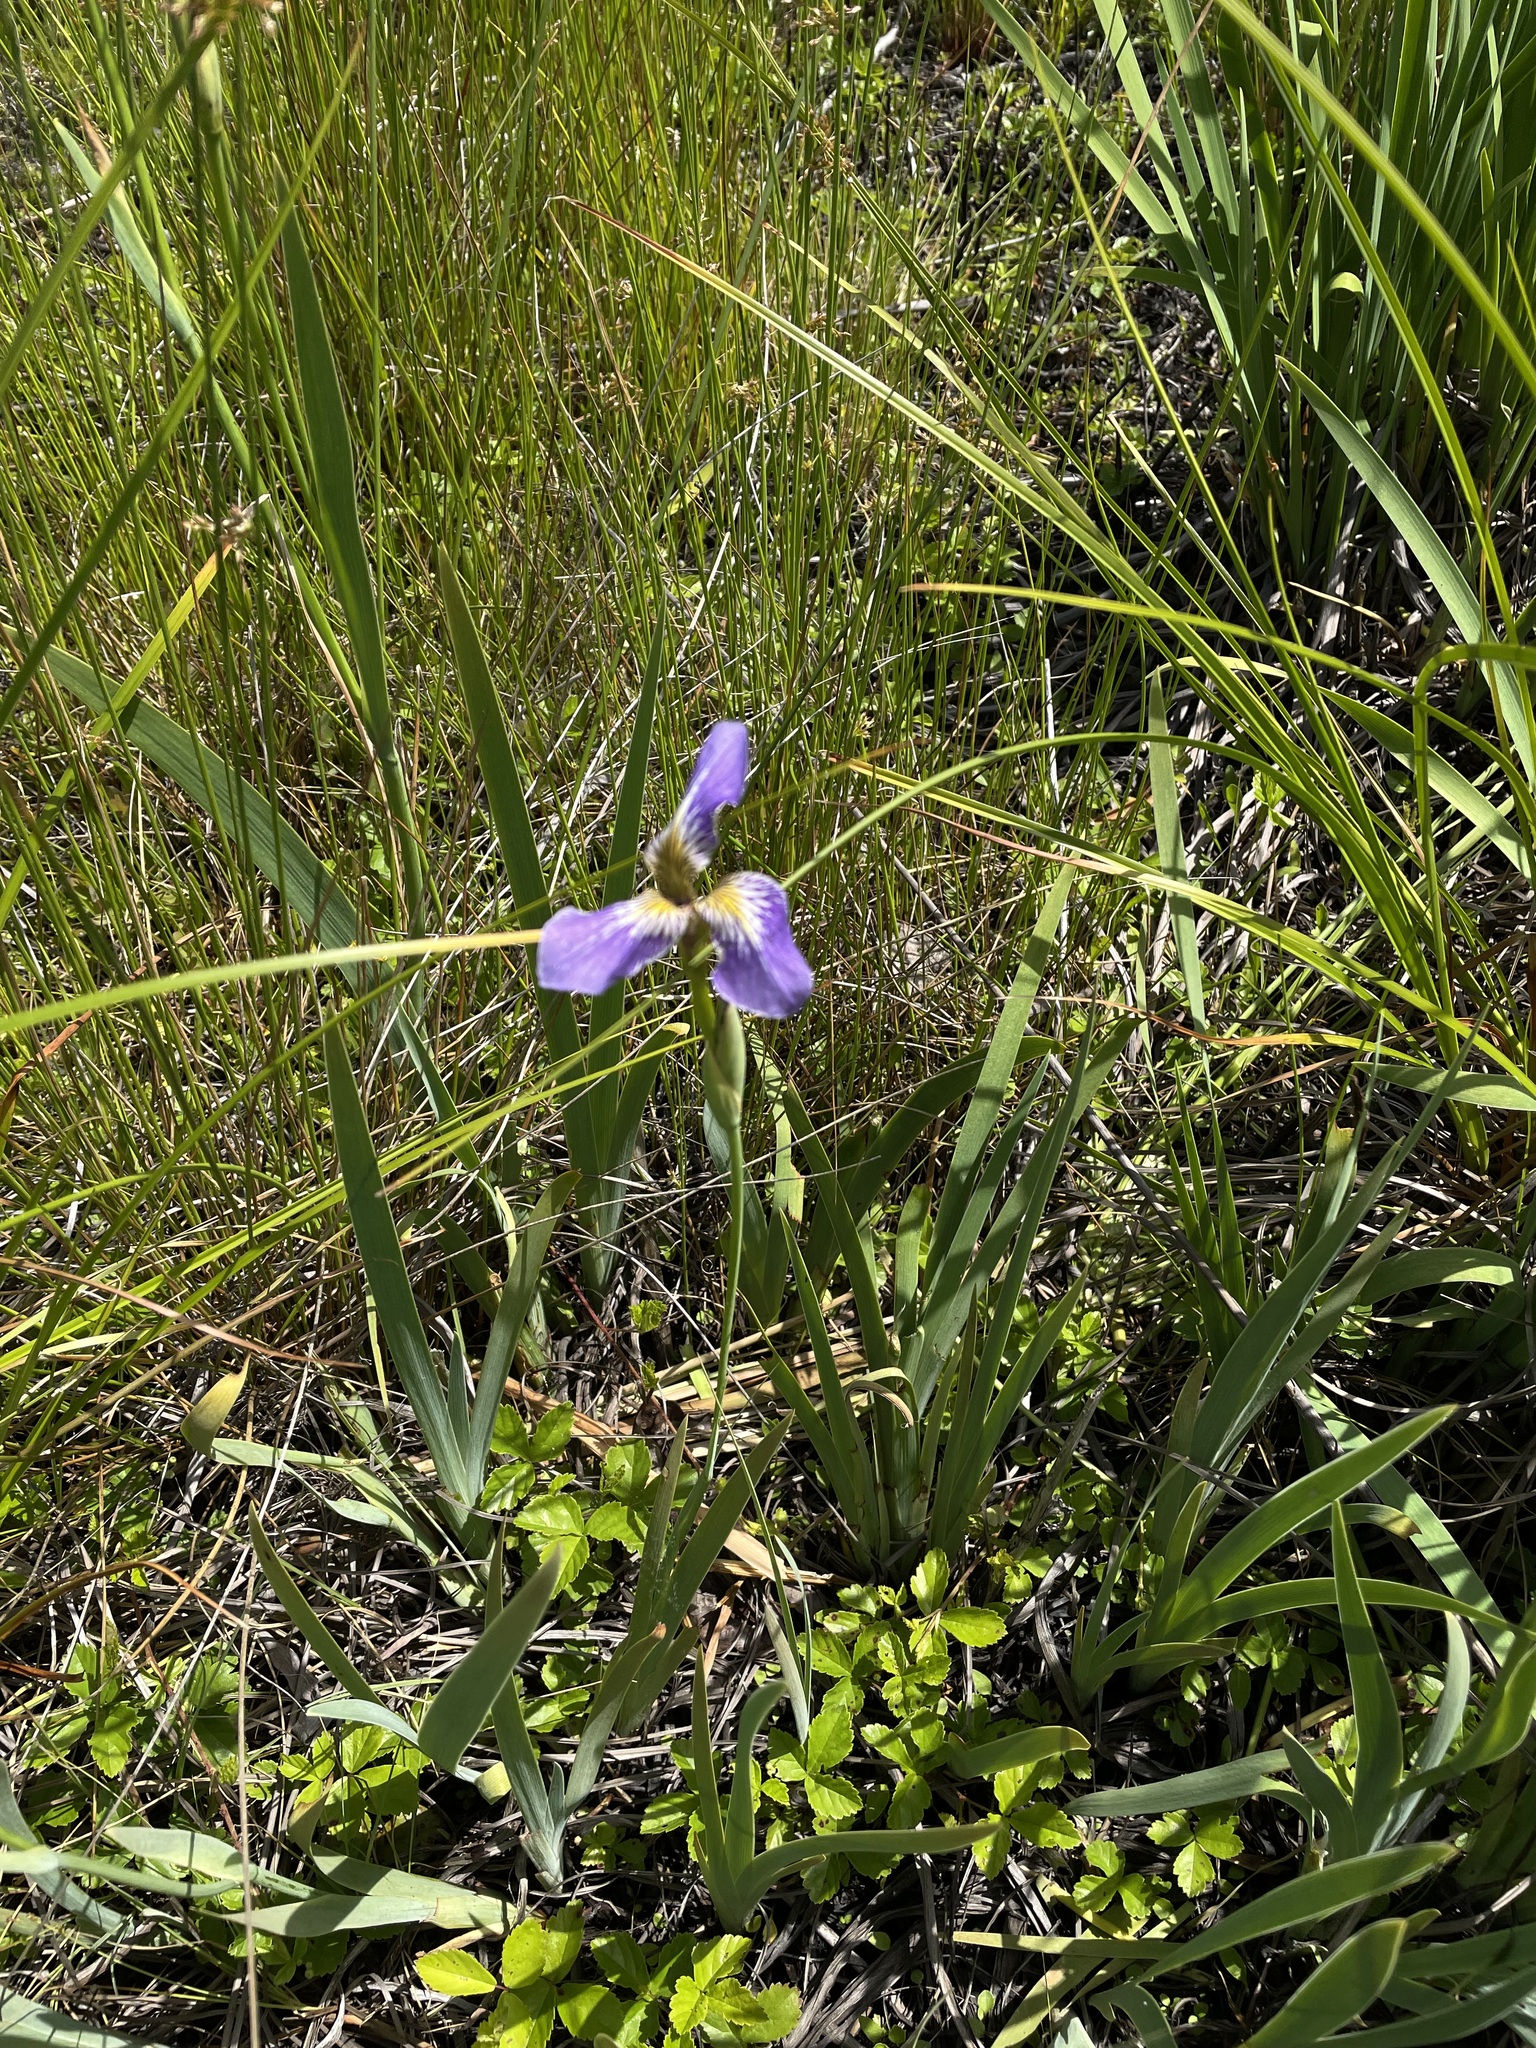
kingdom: Plantae
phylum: Tracheophyta
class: Liliopsida
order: Asparagales
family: Iridaceae
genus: Iris
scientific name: Iris versicolor
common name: Purple iris
